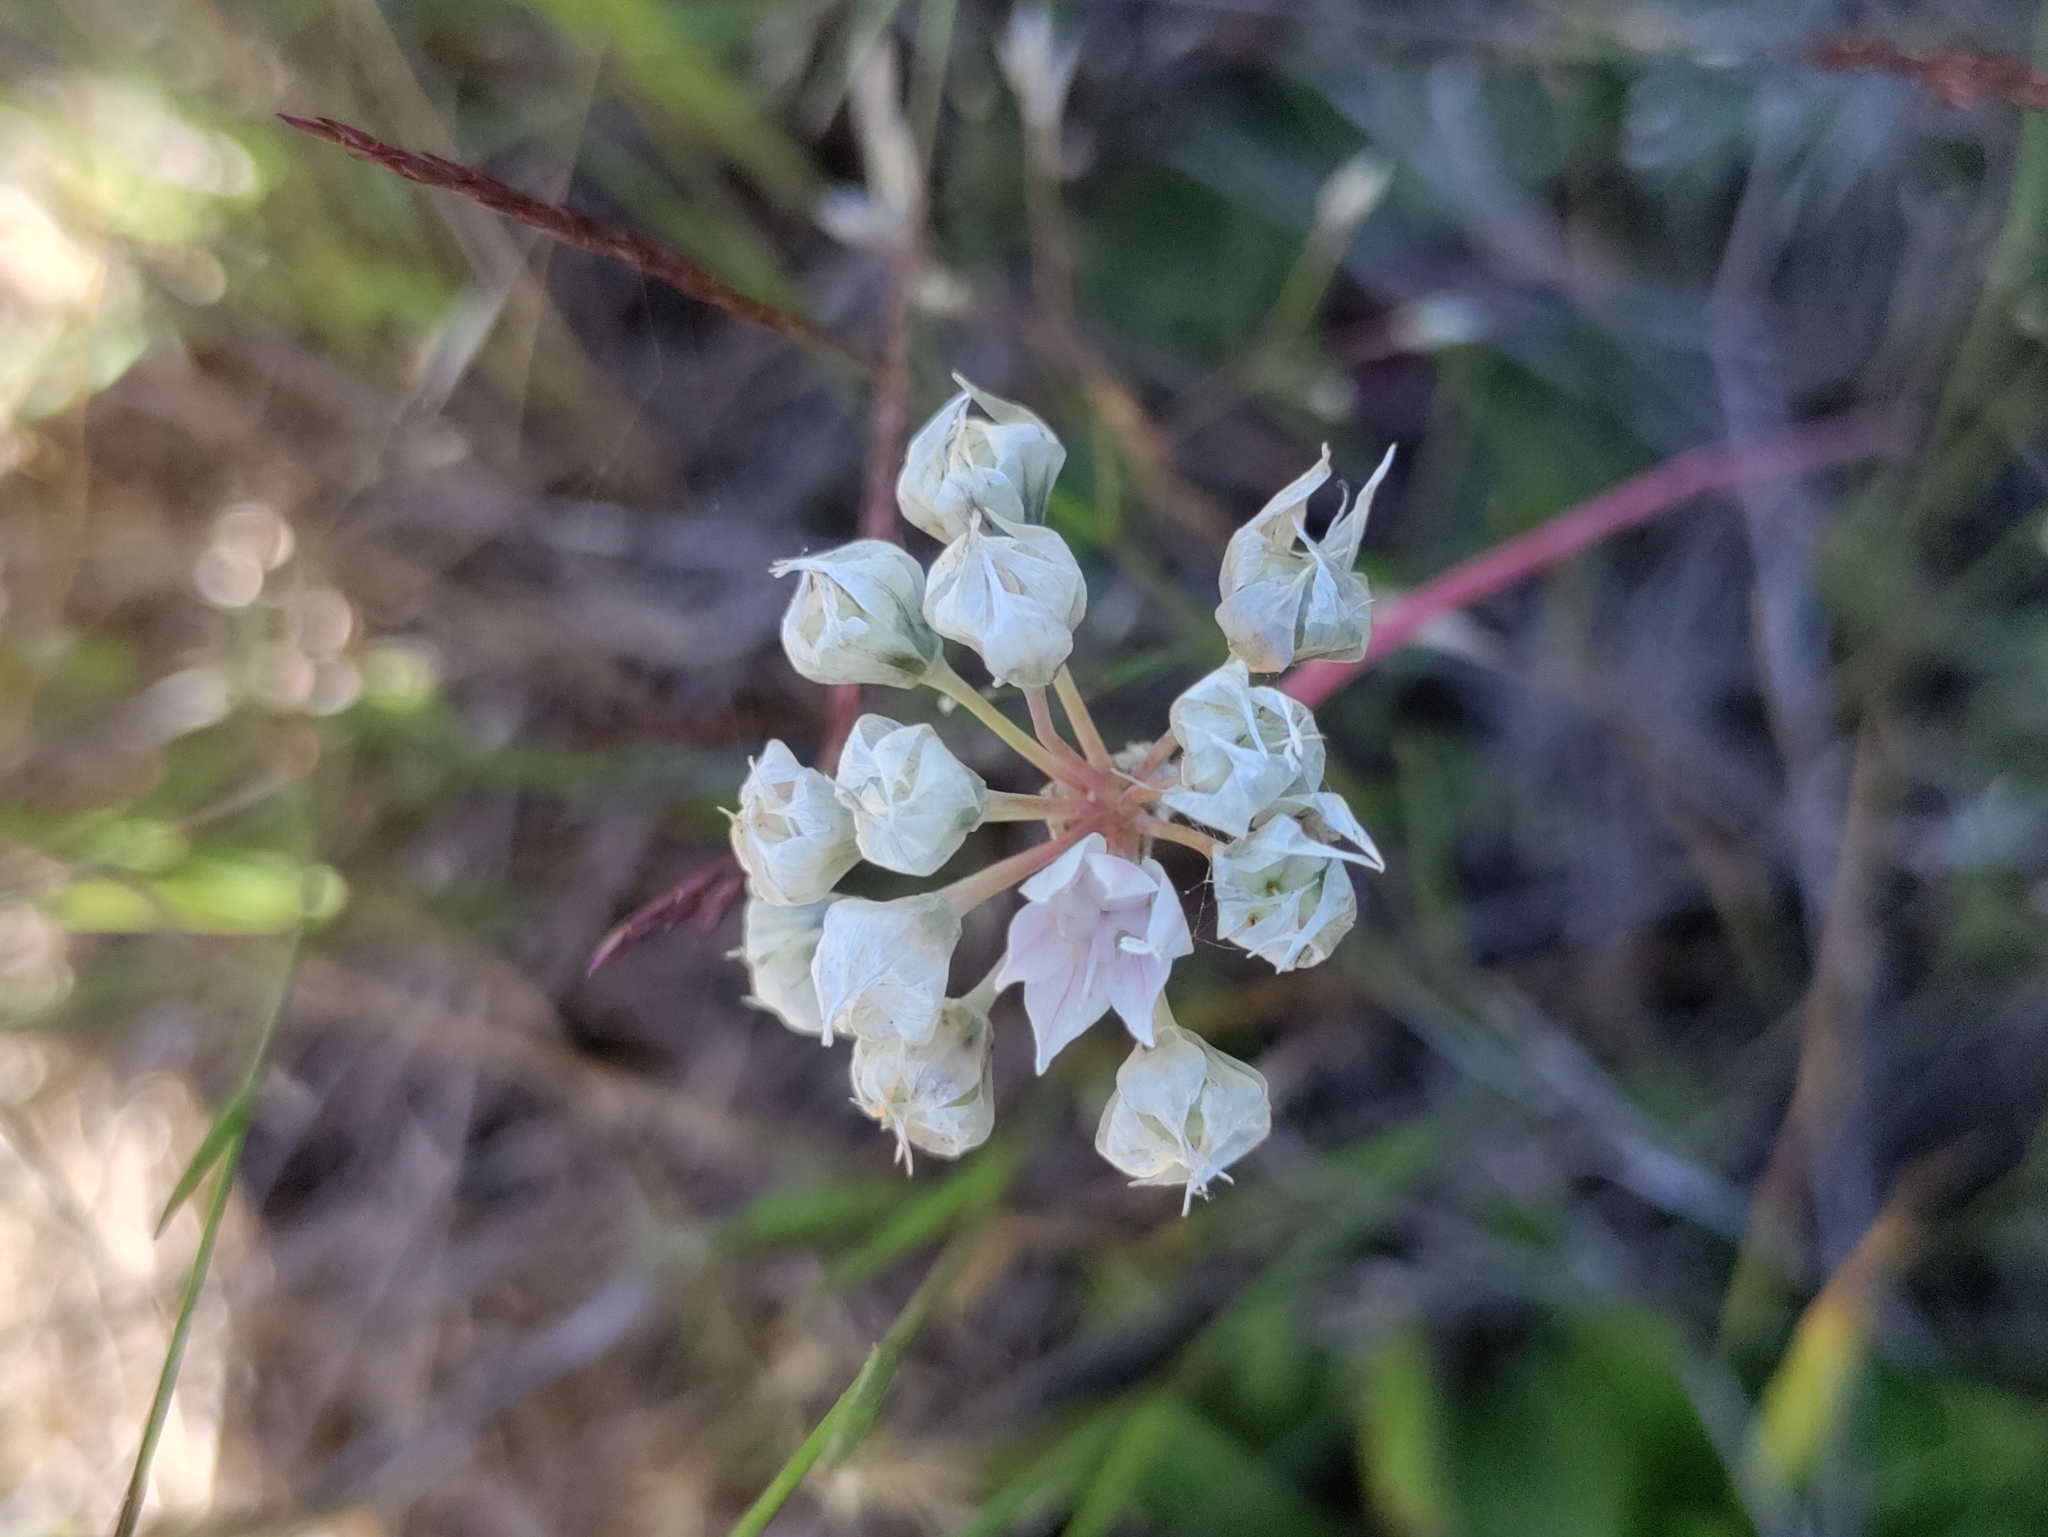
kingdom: Plantae
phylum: Tracheophyta
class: Liliopsida
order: Asparagales
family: Amaryllidaceae
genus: Allium
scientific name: Allium amplectens
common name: Narrow-leaved onion
